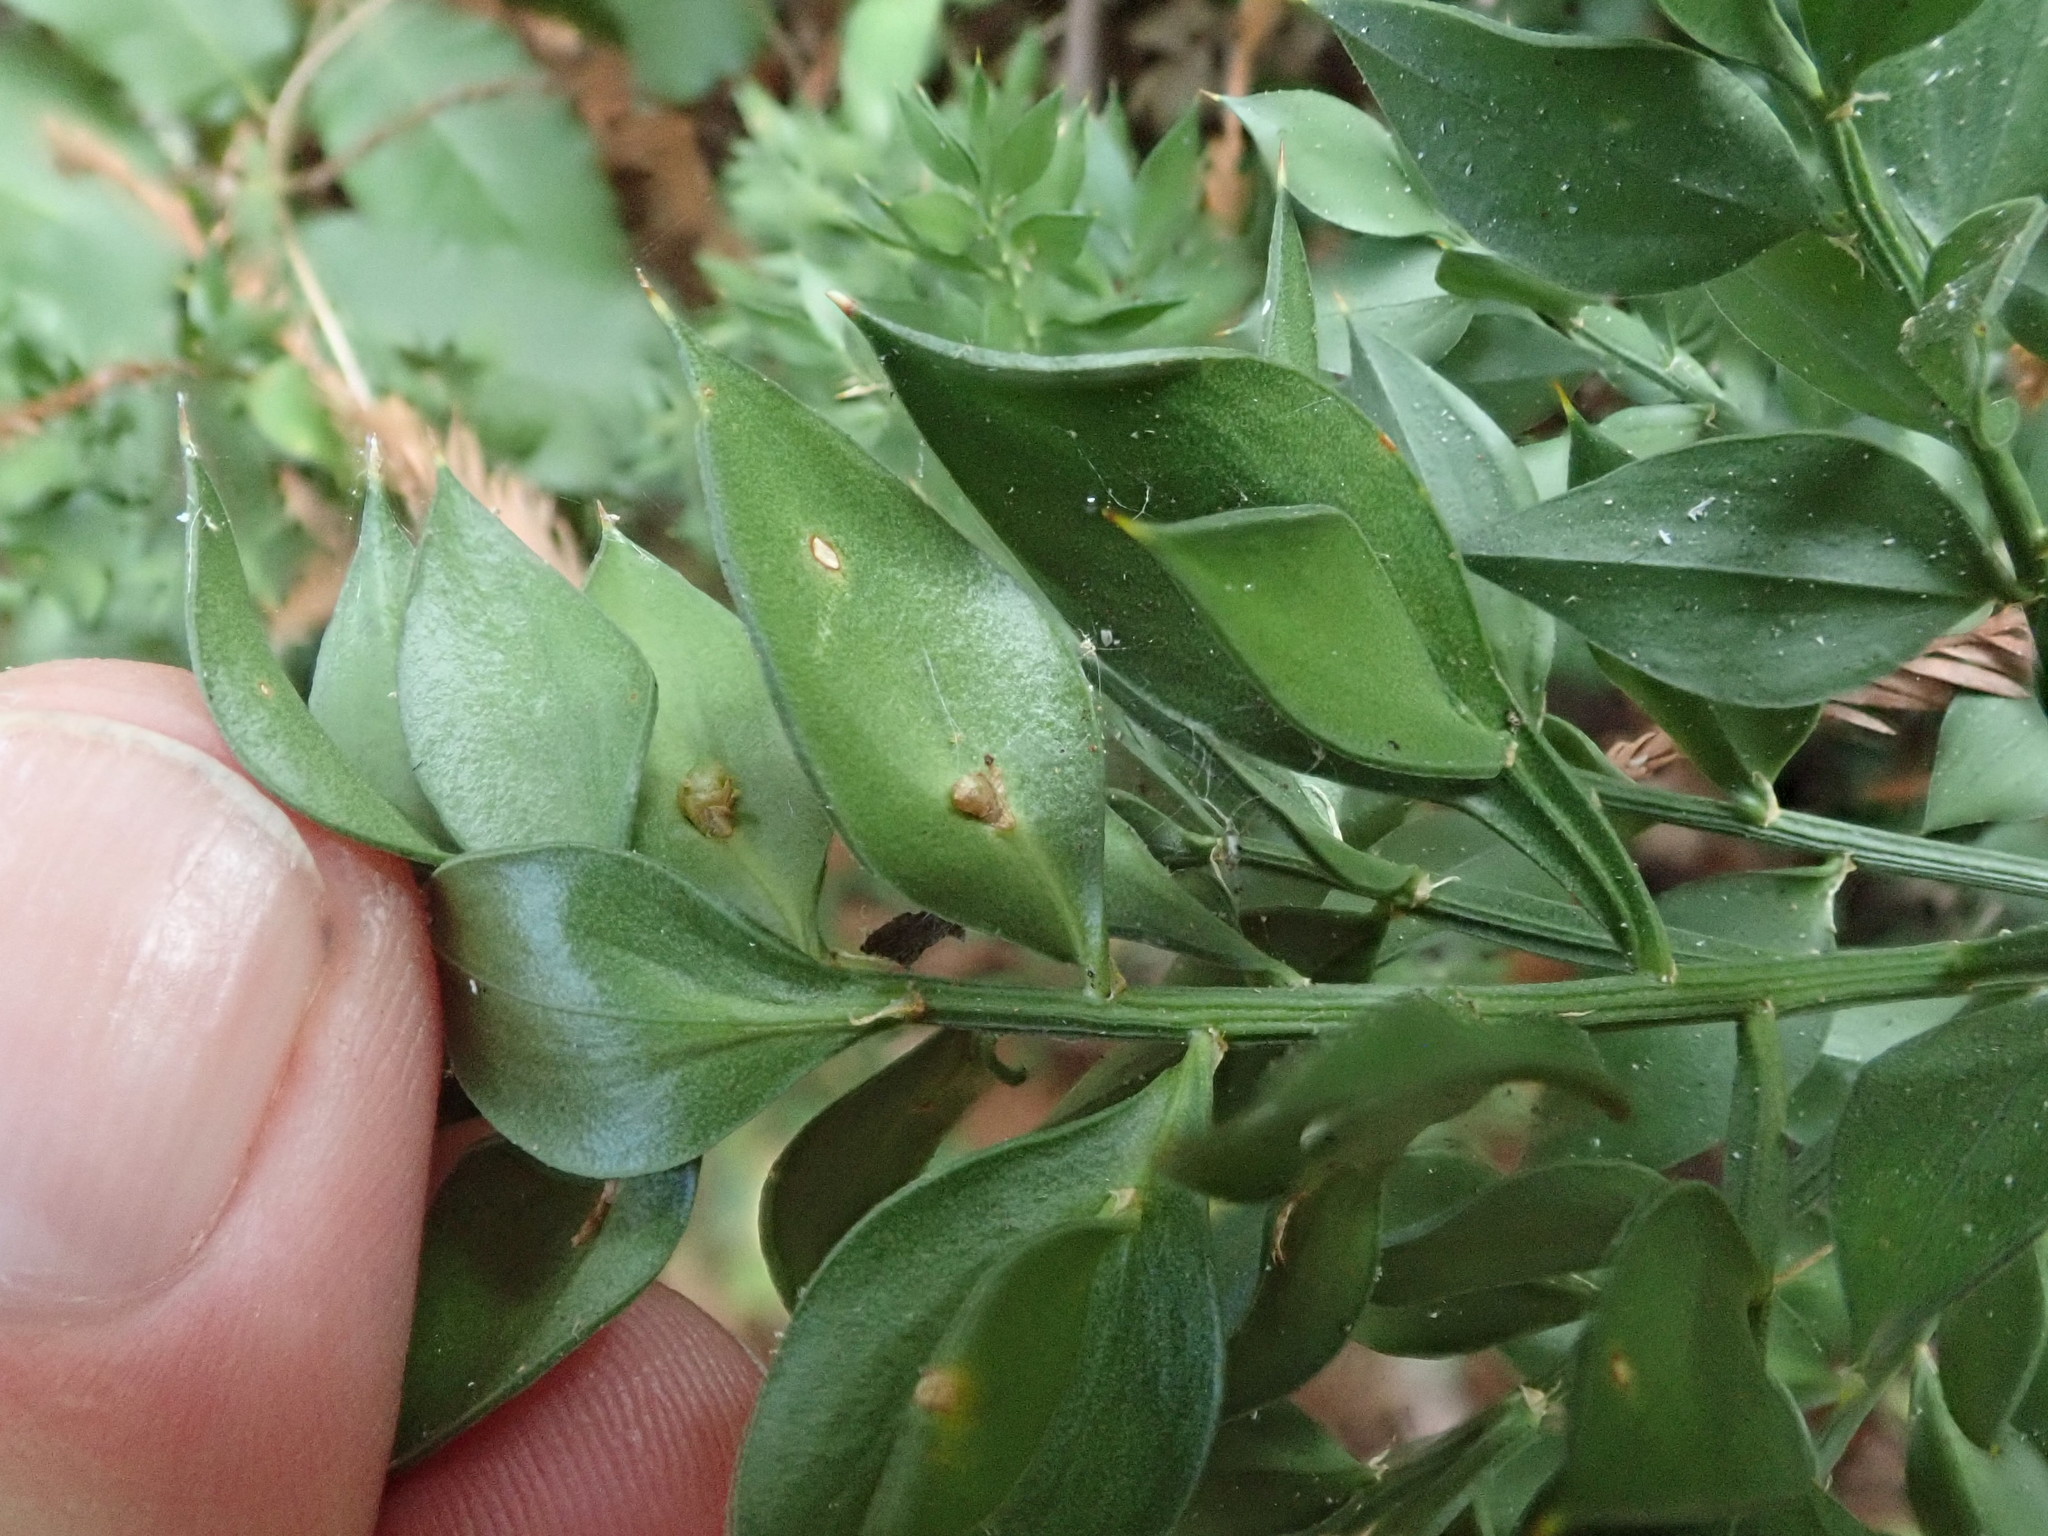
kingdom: Plantae
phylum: Tracheophyta
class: Liliopsida
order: Asparagales
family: Asparagaceae
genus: Ruscus
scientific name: Ruscus aculeatus
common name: Butcher's-broom
